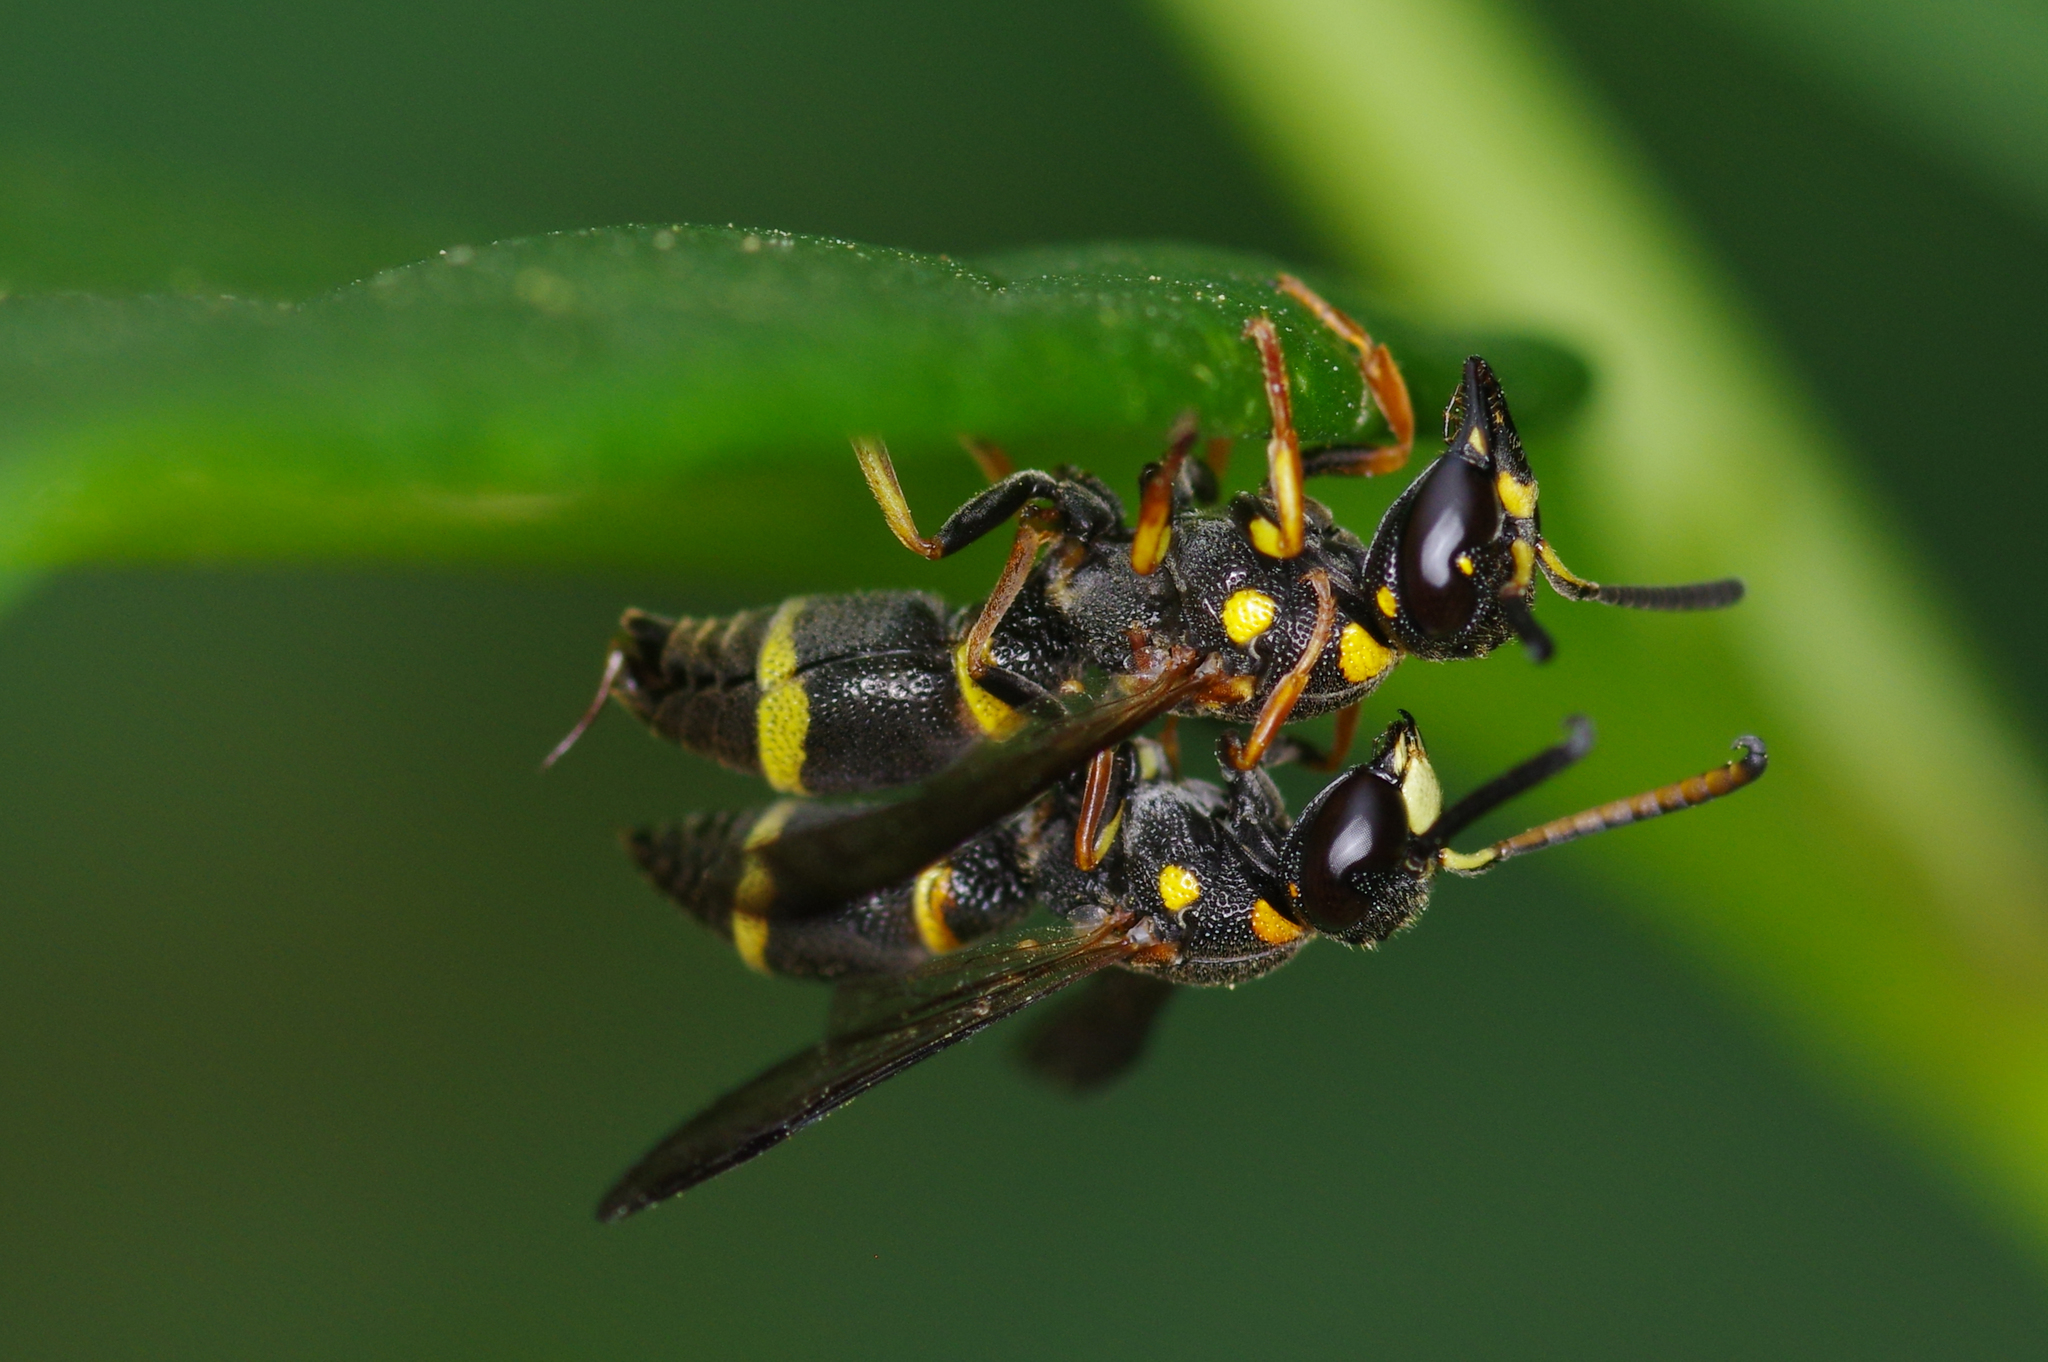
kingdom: Animalia
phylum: Arthropoda
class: Insecta
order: Hymenoptera
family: Eumenidae
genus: Parancistrocerus
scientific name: Parancistrocerus perennis
